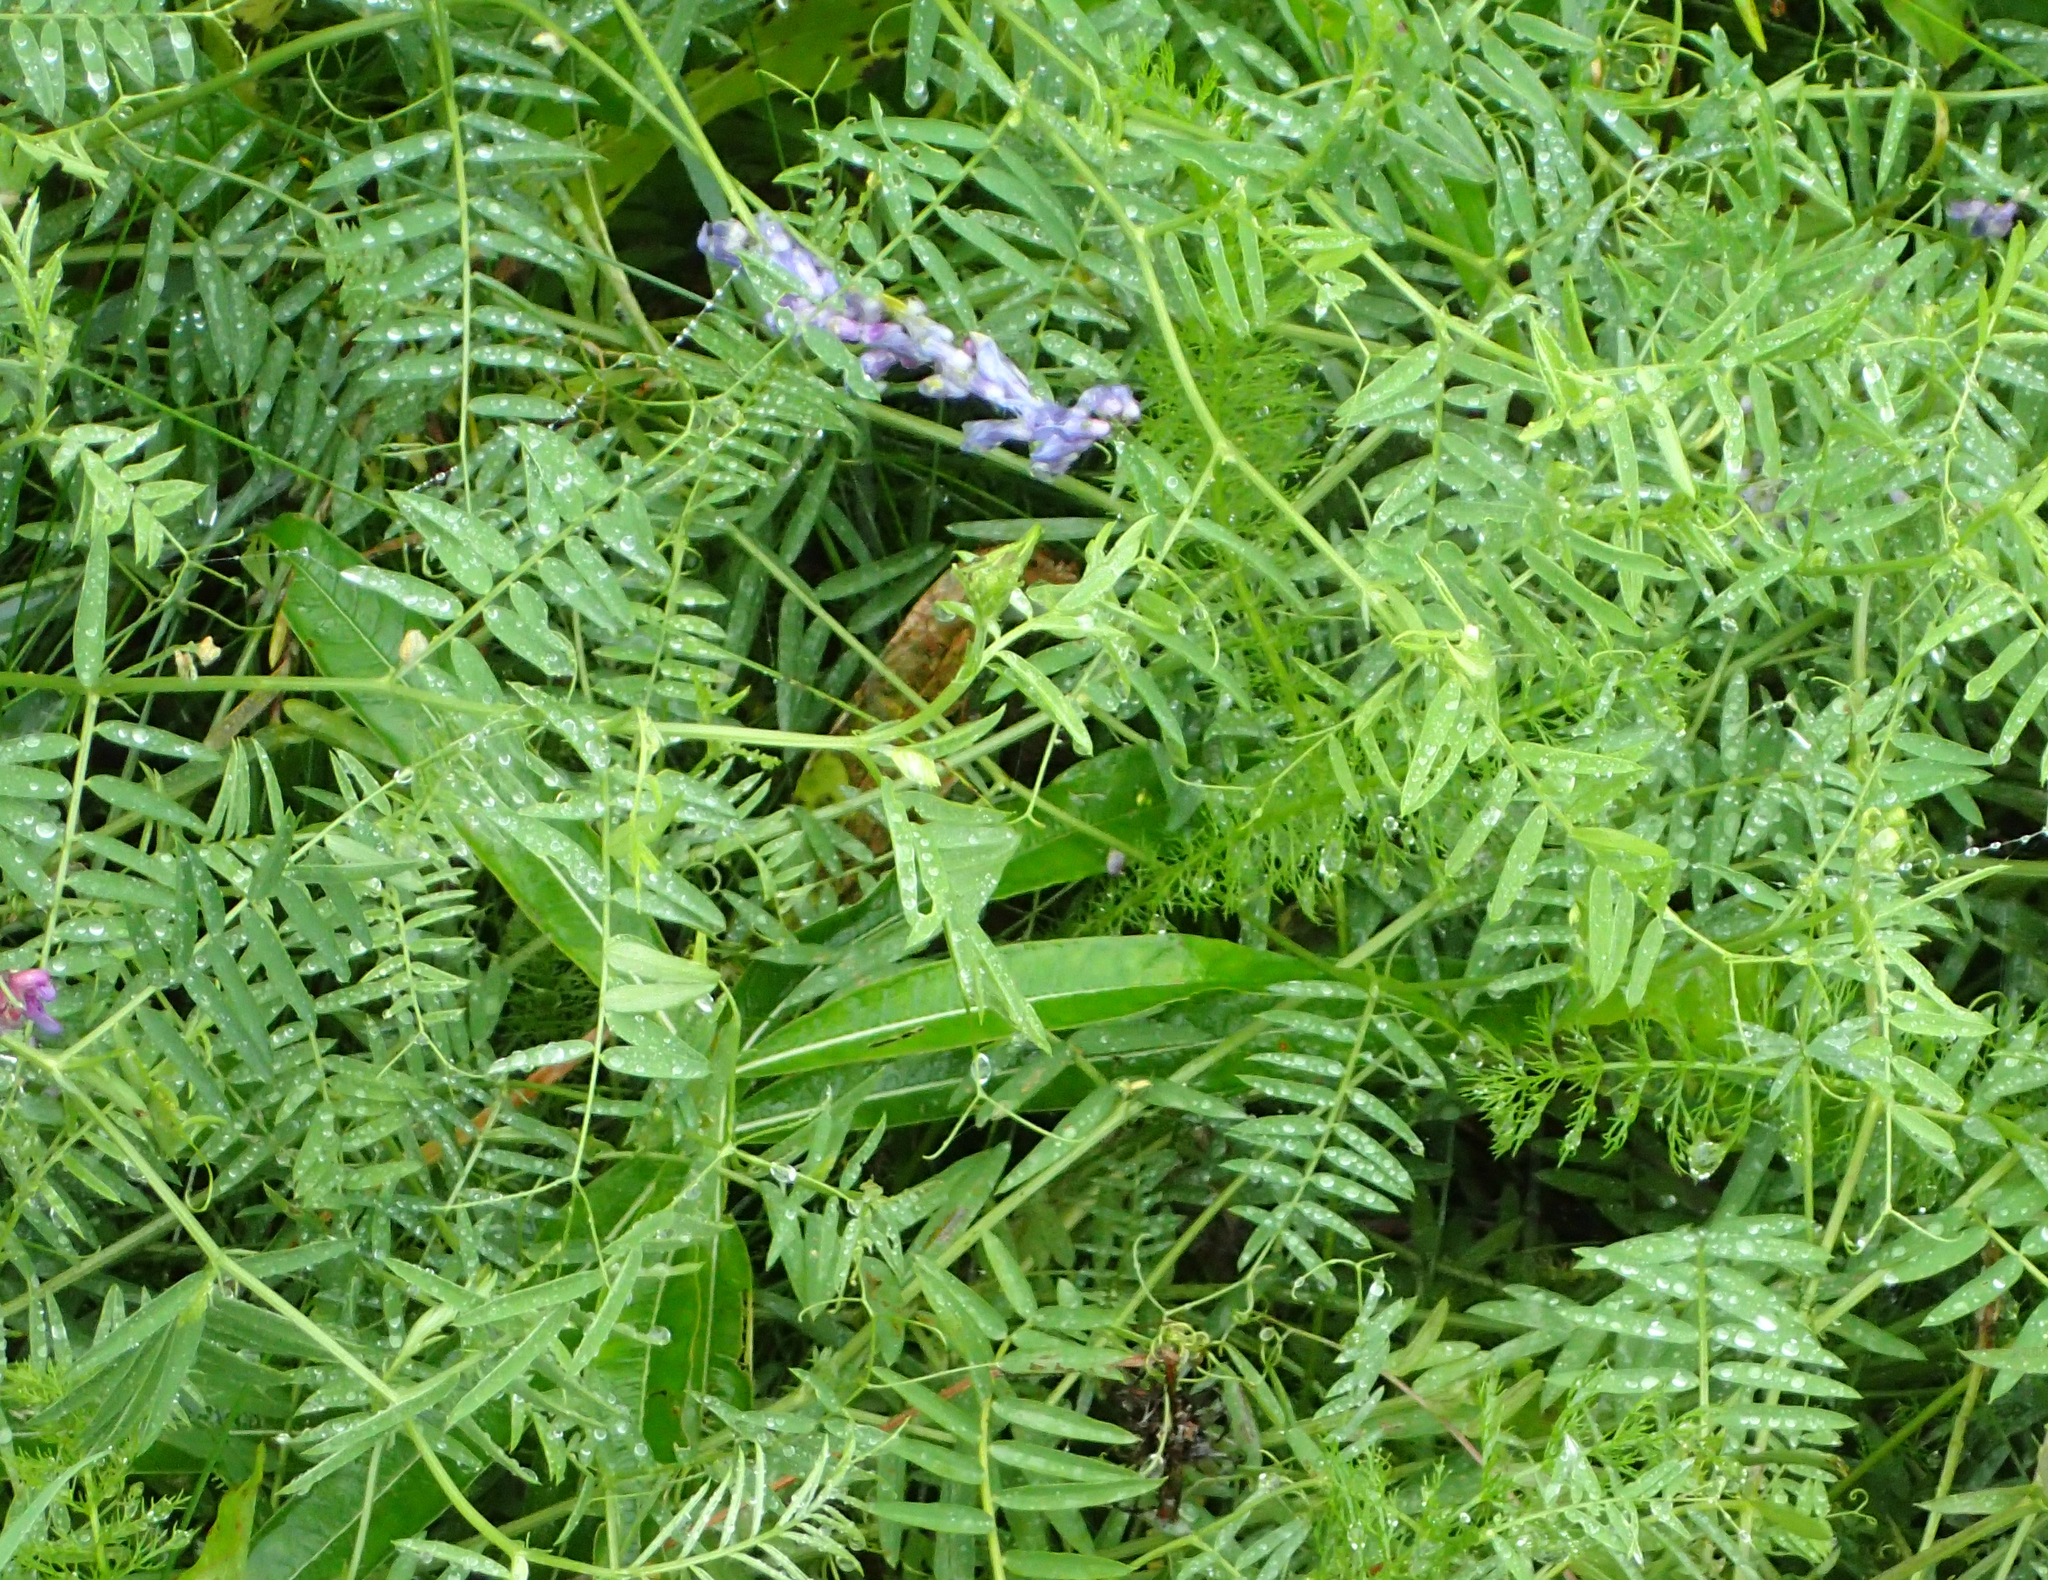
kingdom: Plantae
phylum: Tracheophyta
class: Magnoliopsida
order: Fabales
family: Fabaceae
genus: Vicia
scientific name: Vicia cracca
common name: Bird vetch
